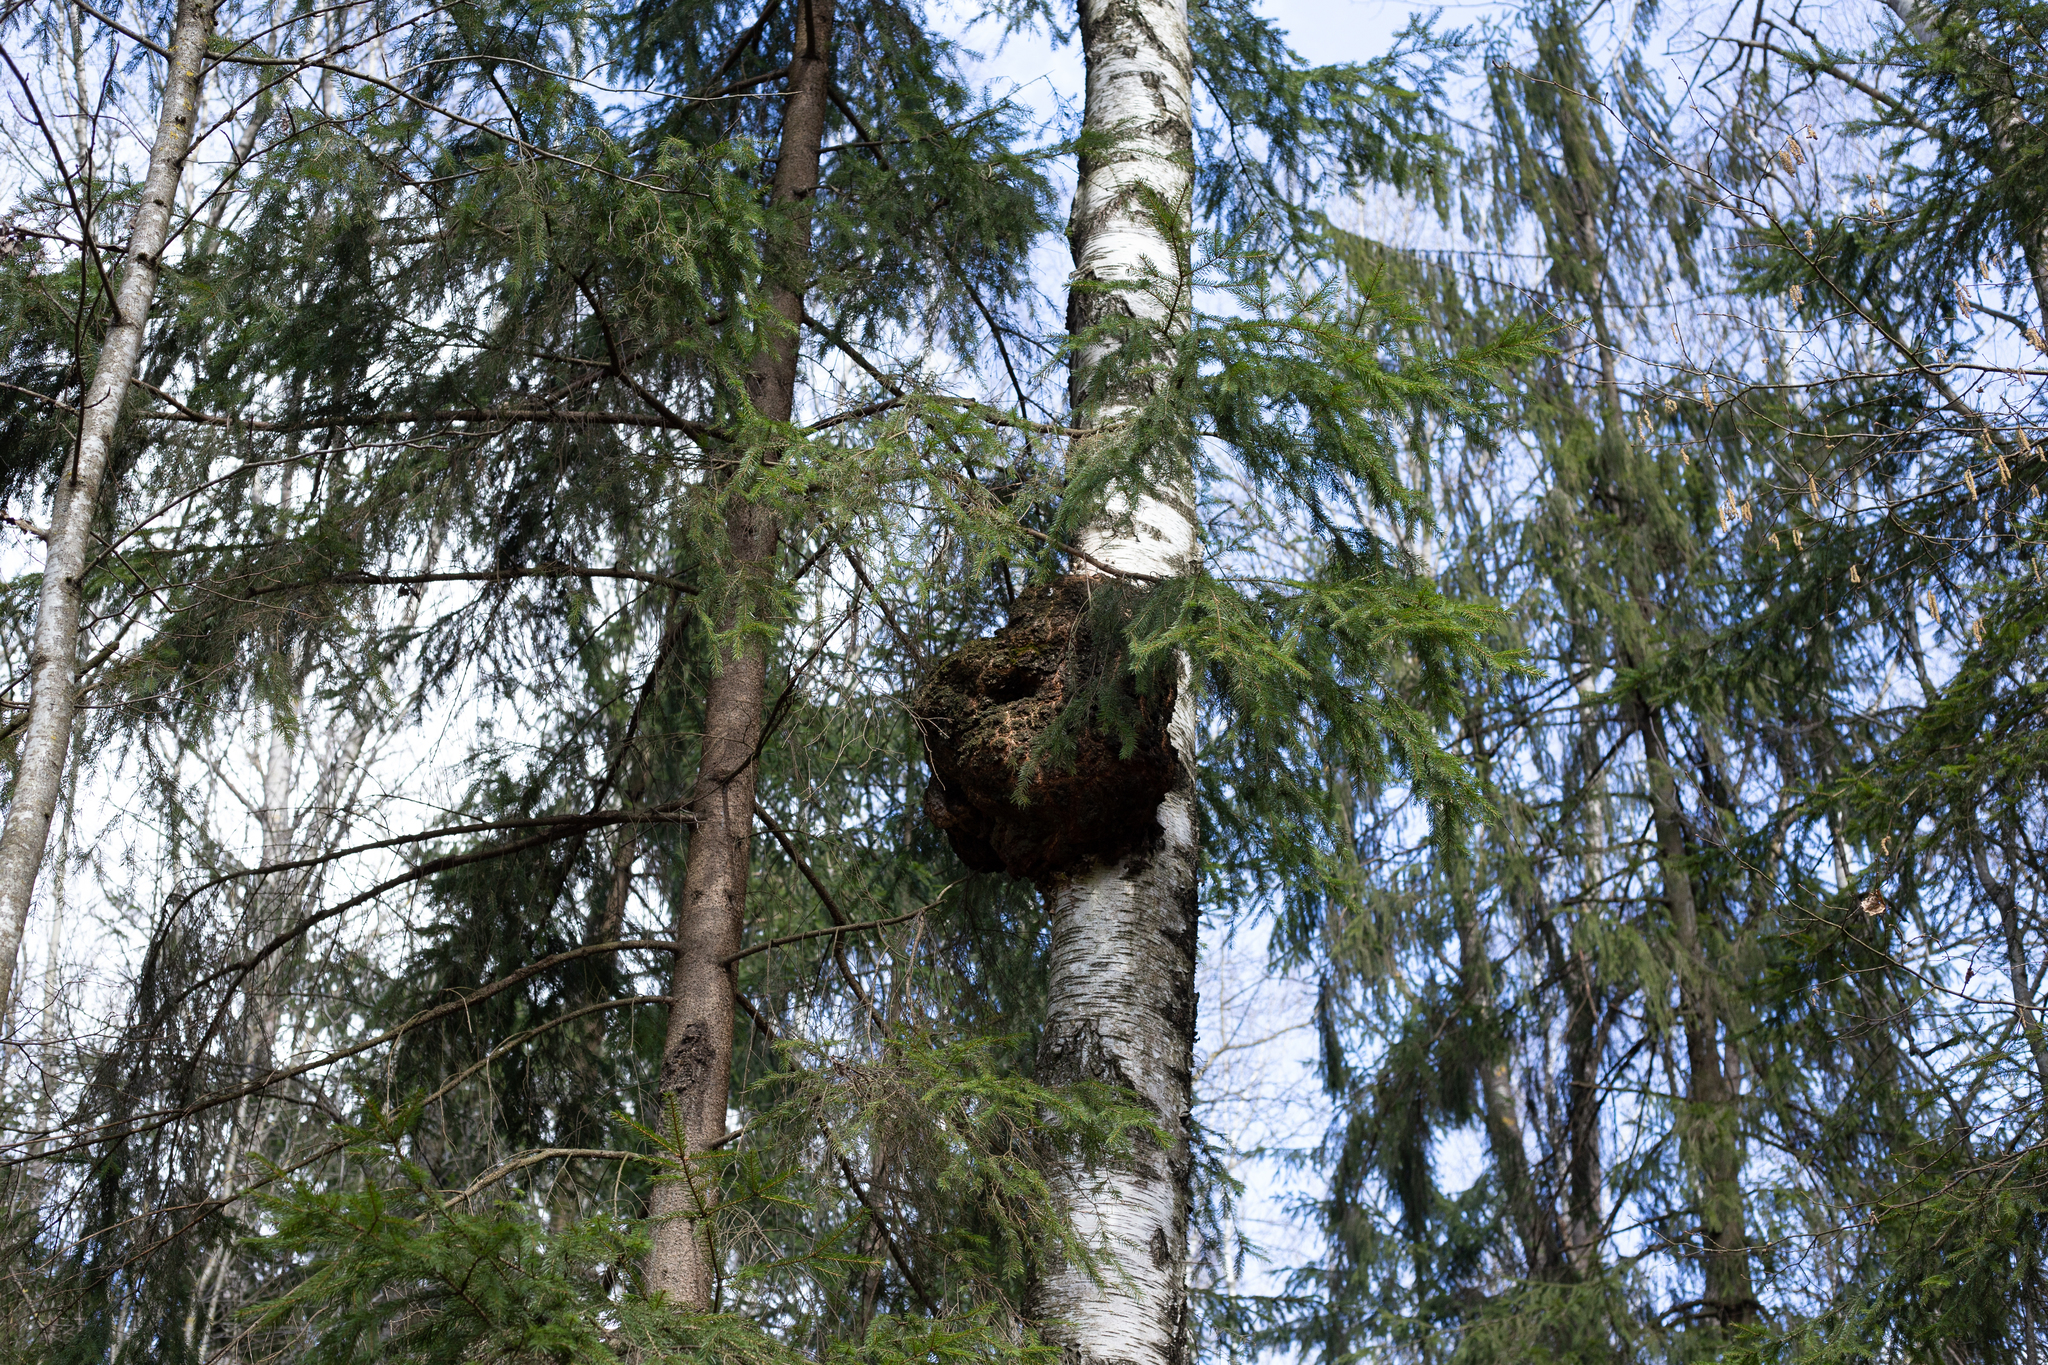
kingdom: Bacteria
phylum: Proteobacteria
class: Alphaproteobacteria
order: Rhizobiales
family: Rhizobiaceae
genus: Rhizobium
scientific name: Rhizobium Agrobacterium radiobacter
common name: Bacterial crown gall
